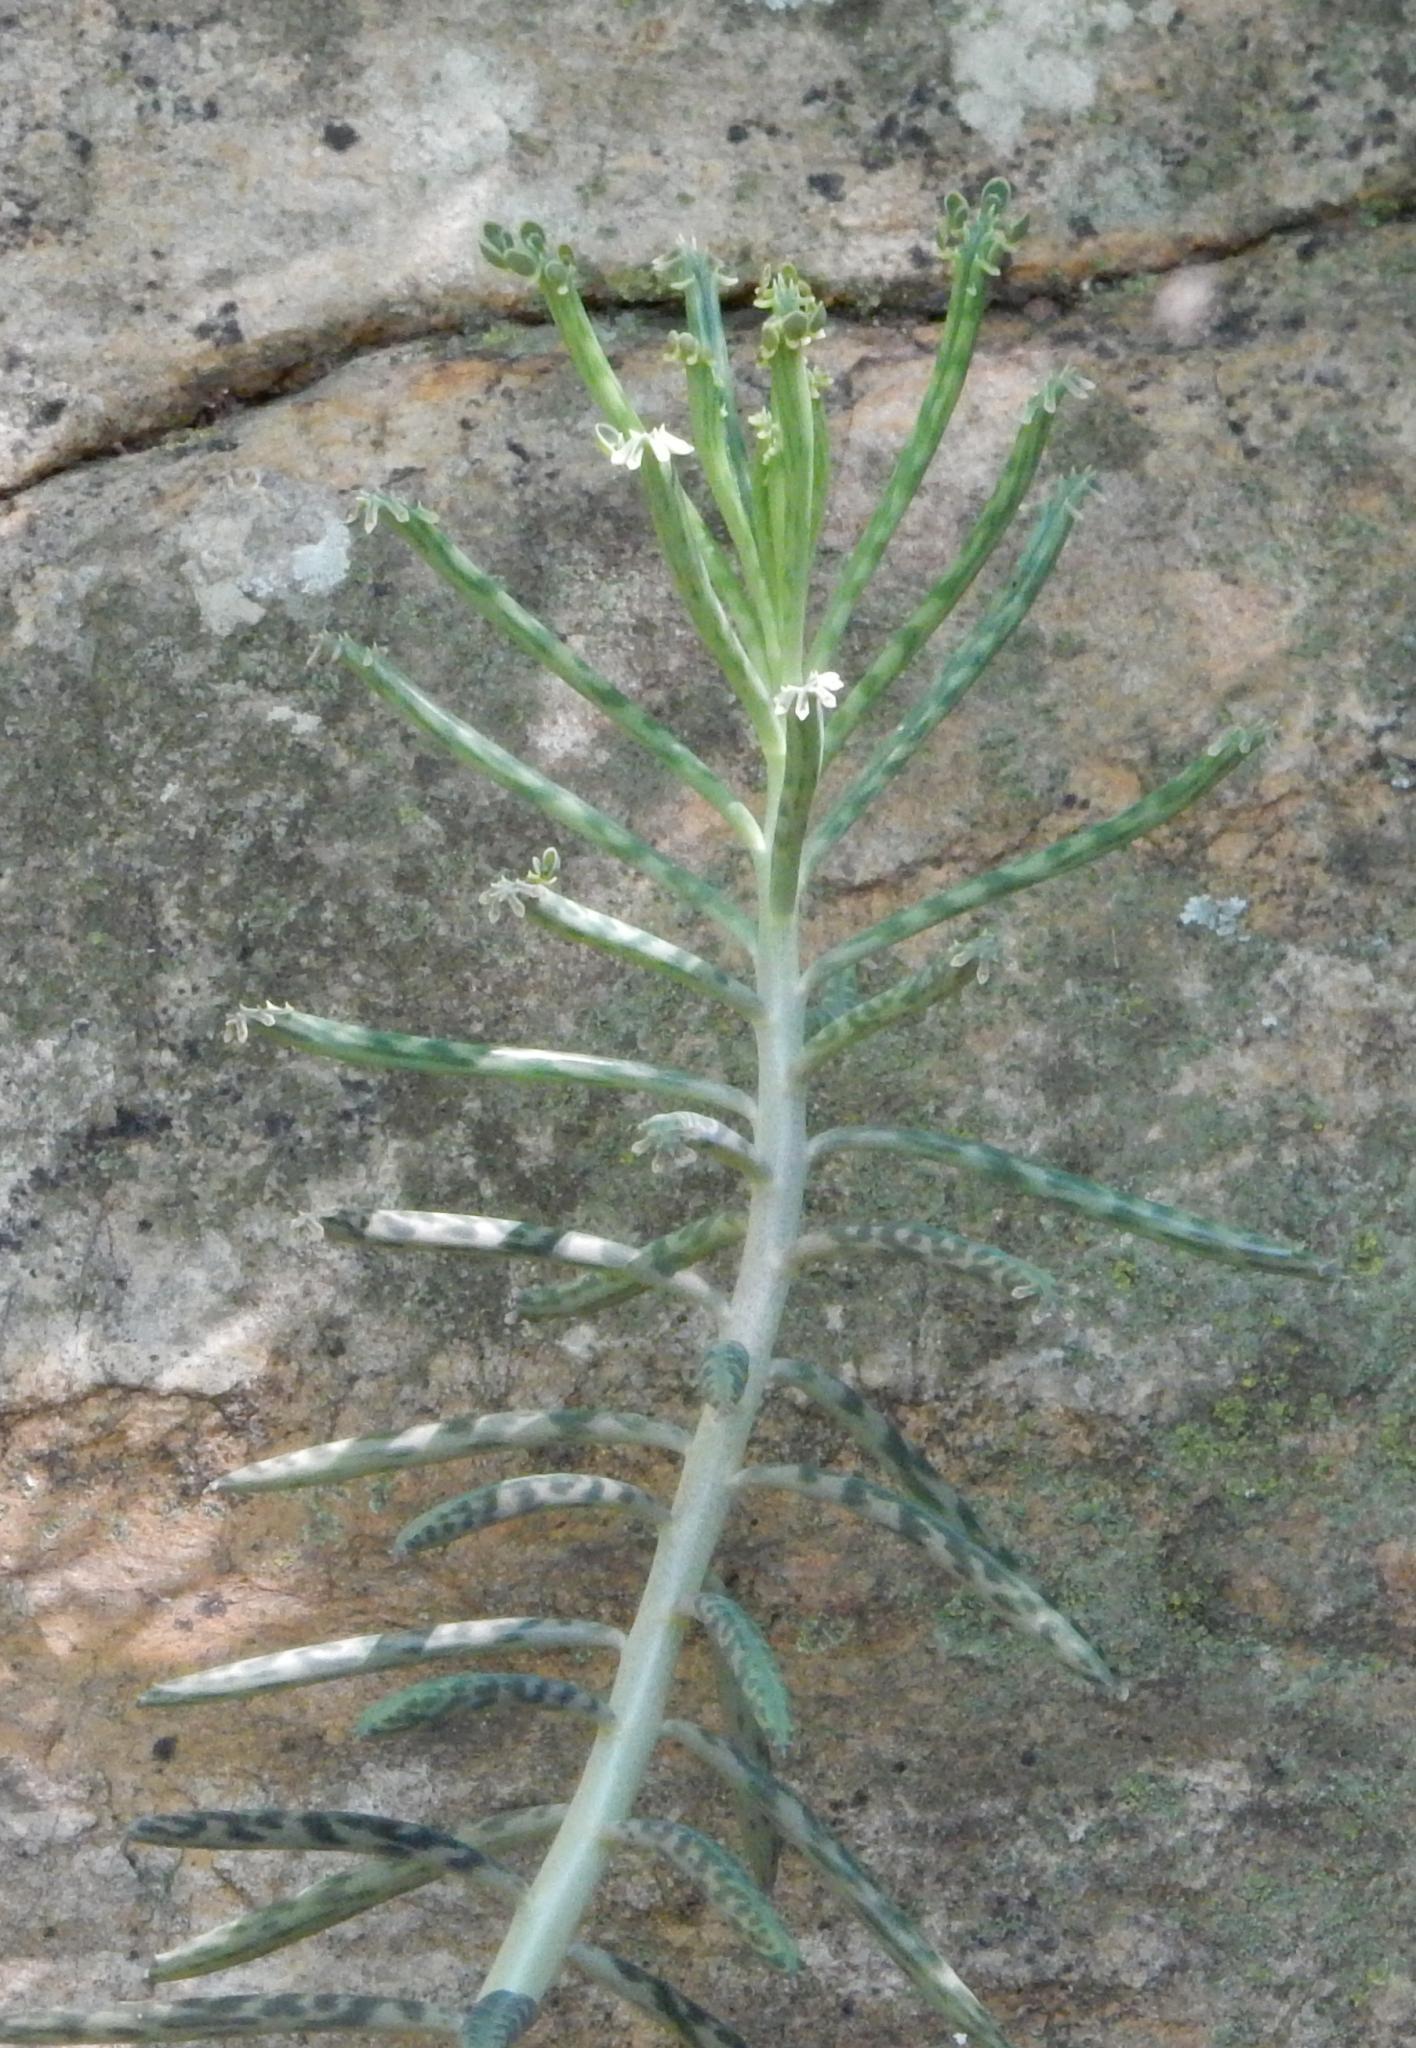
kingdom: Plantae
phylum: Tracheophyta
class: Magnoliopsida
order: Saxifragales
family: Crassulaceae
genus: Kalanchoe
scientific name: Kalanchoe delagoensis
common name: Chandelier plant
